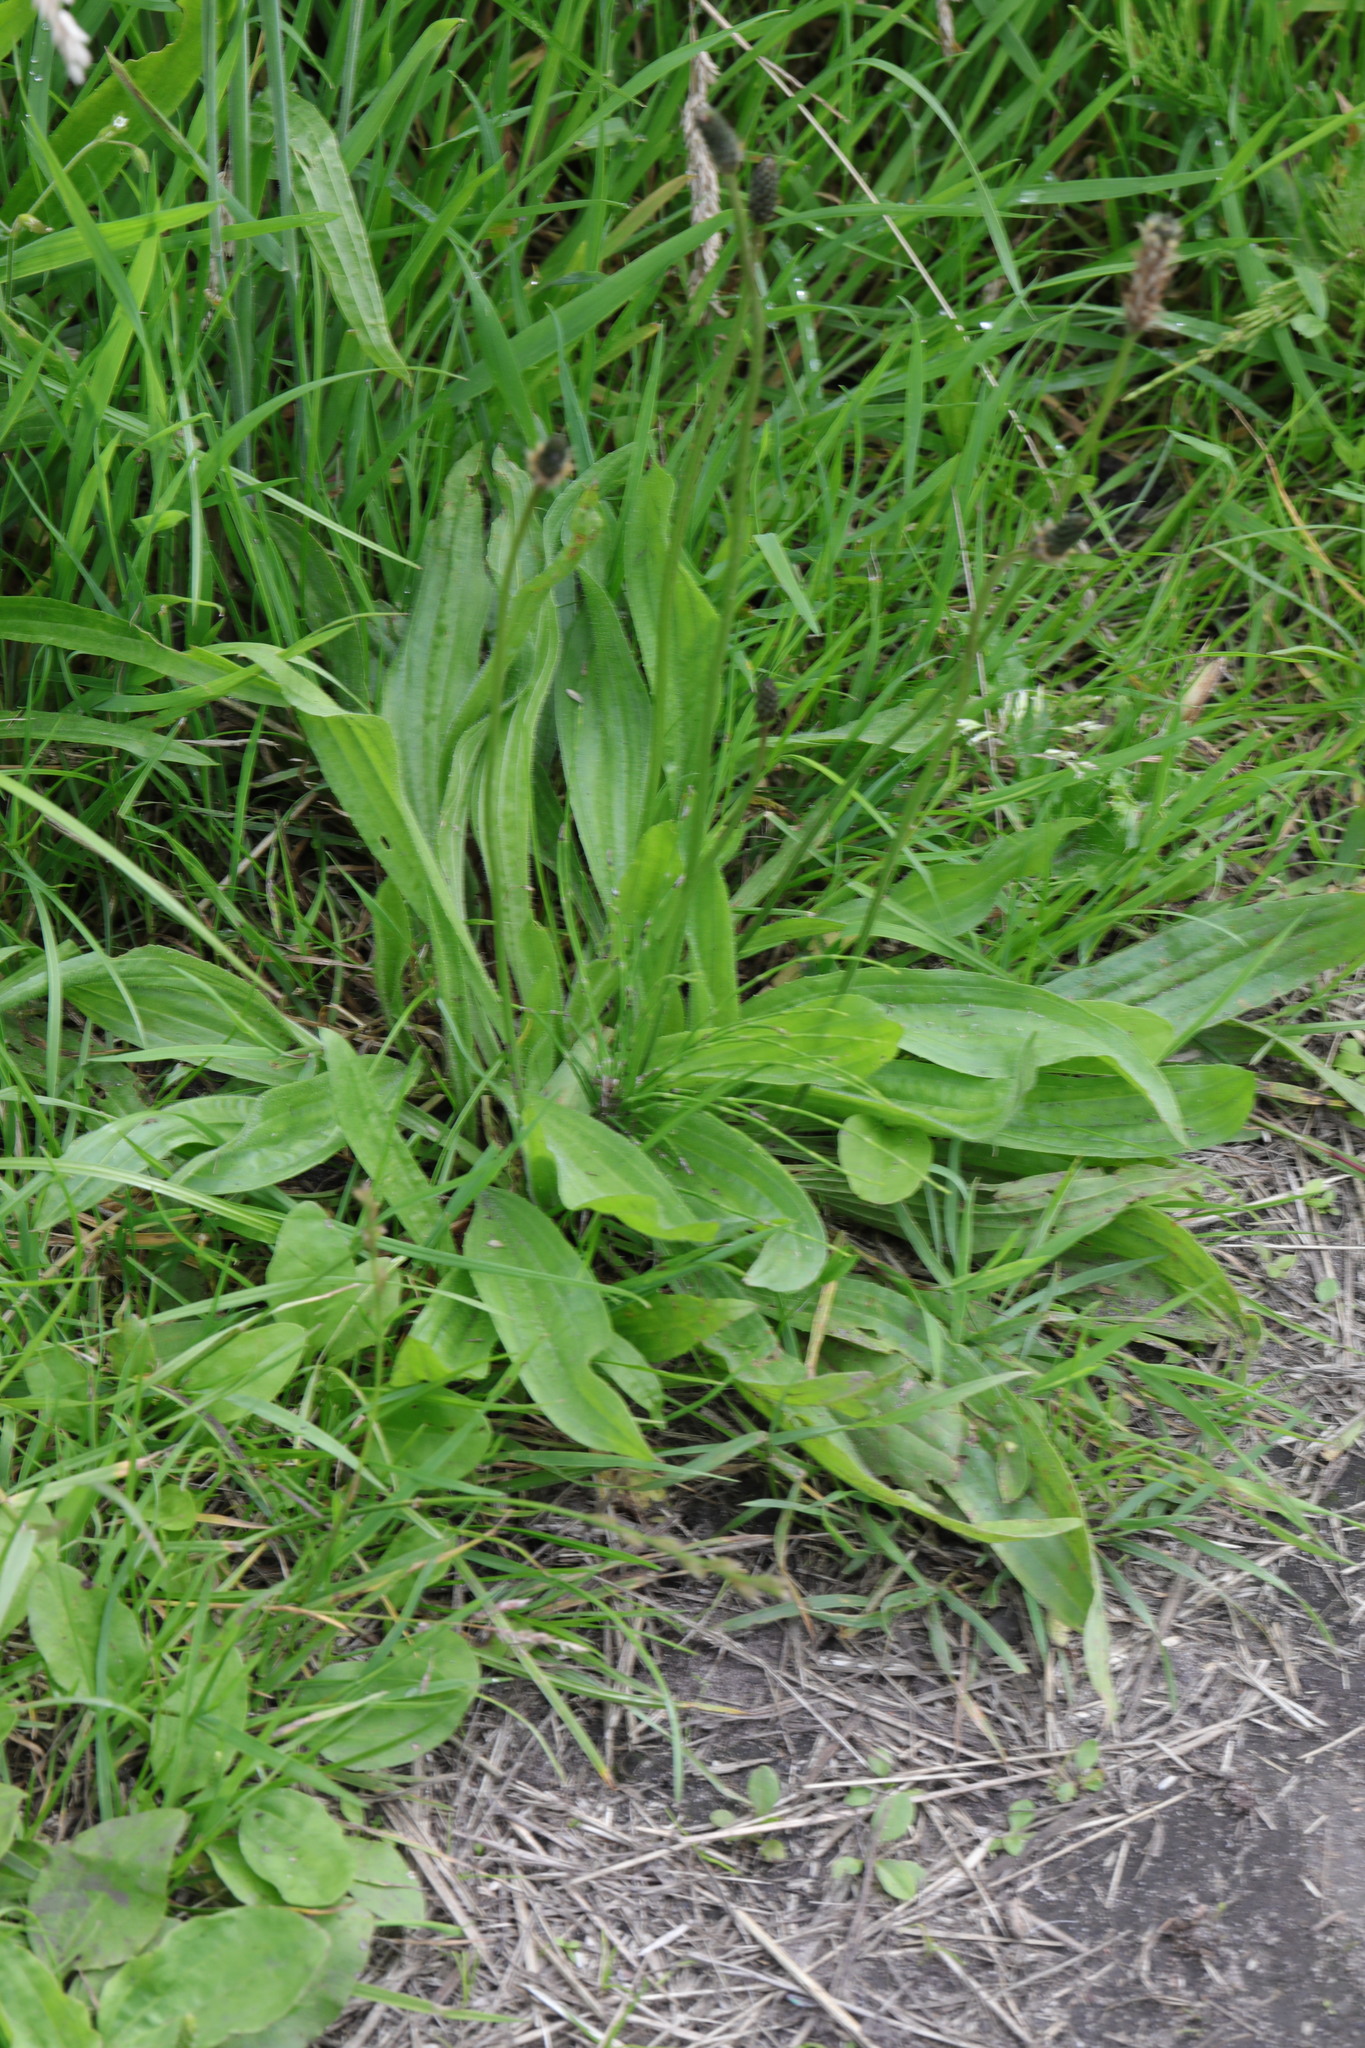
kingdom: Plantae
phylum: Tracheophyta
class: Magnoliopsida
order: Lamiales
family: Plantaginaceae
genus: Plantago
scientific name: Plantago lanceolata
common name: Ribwort plantain
